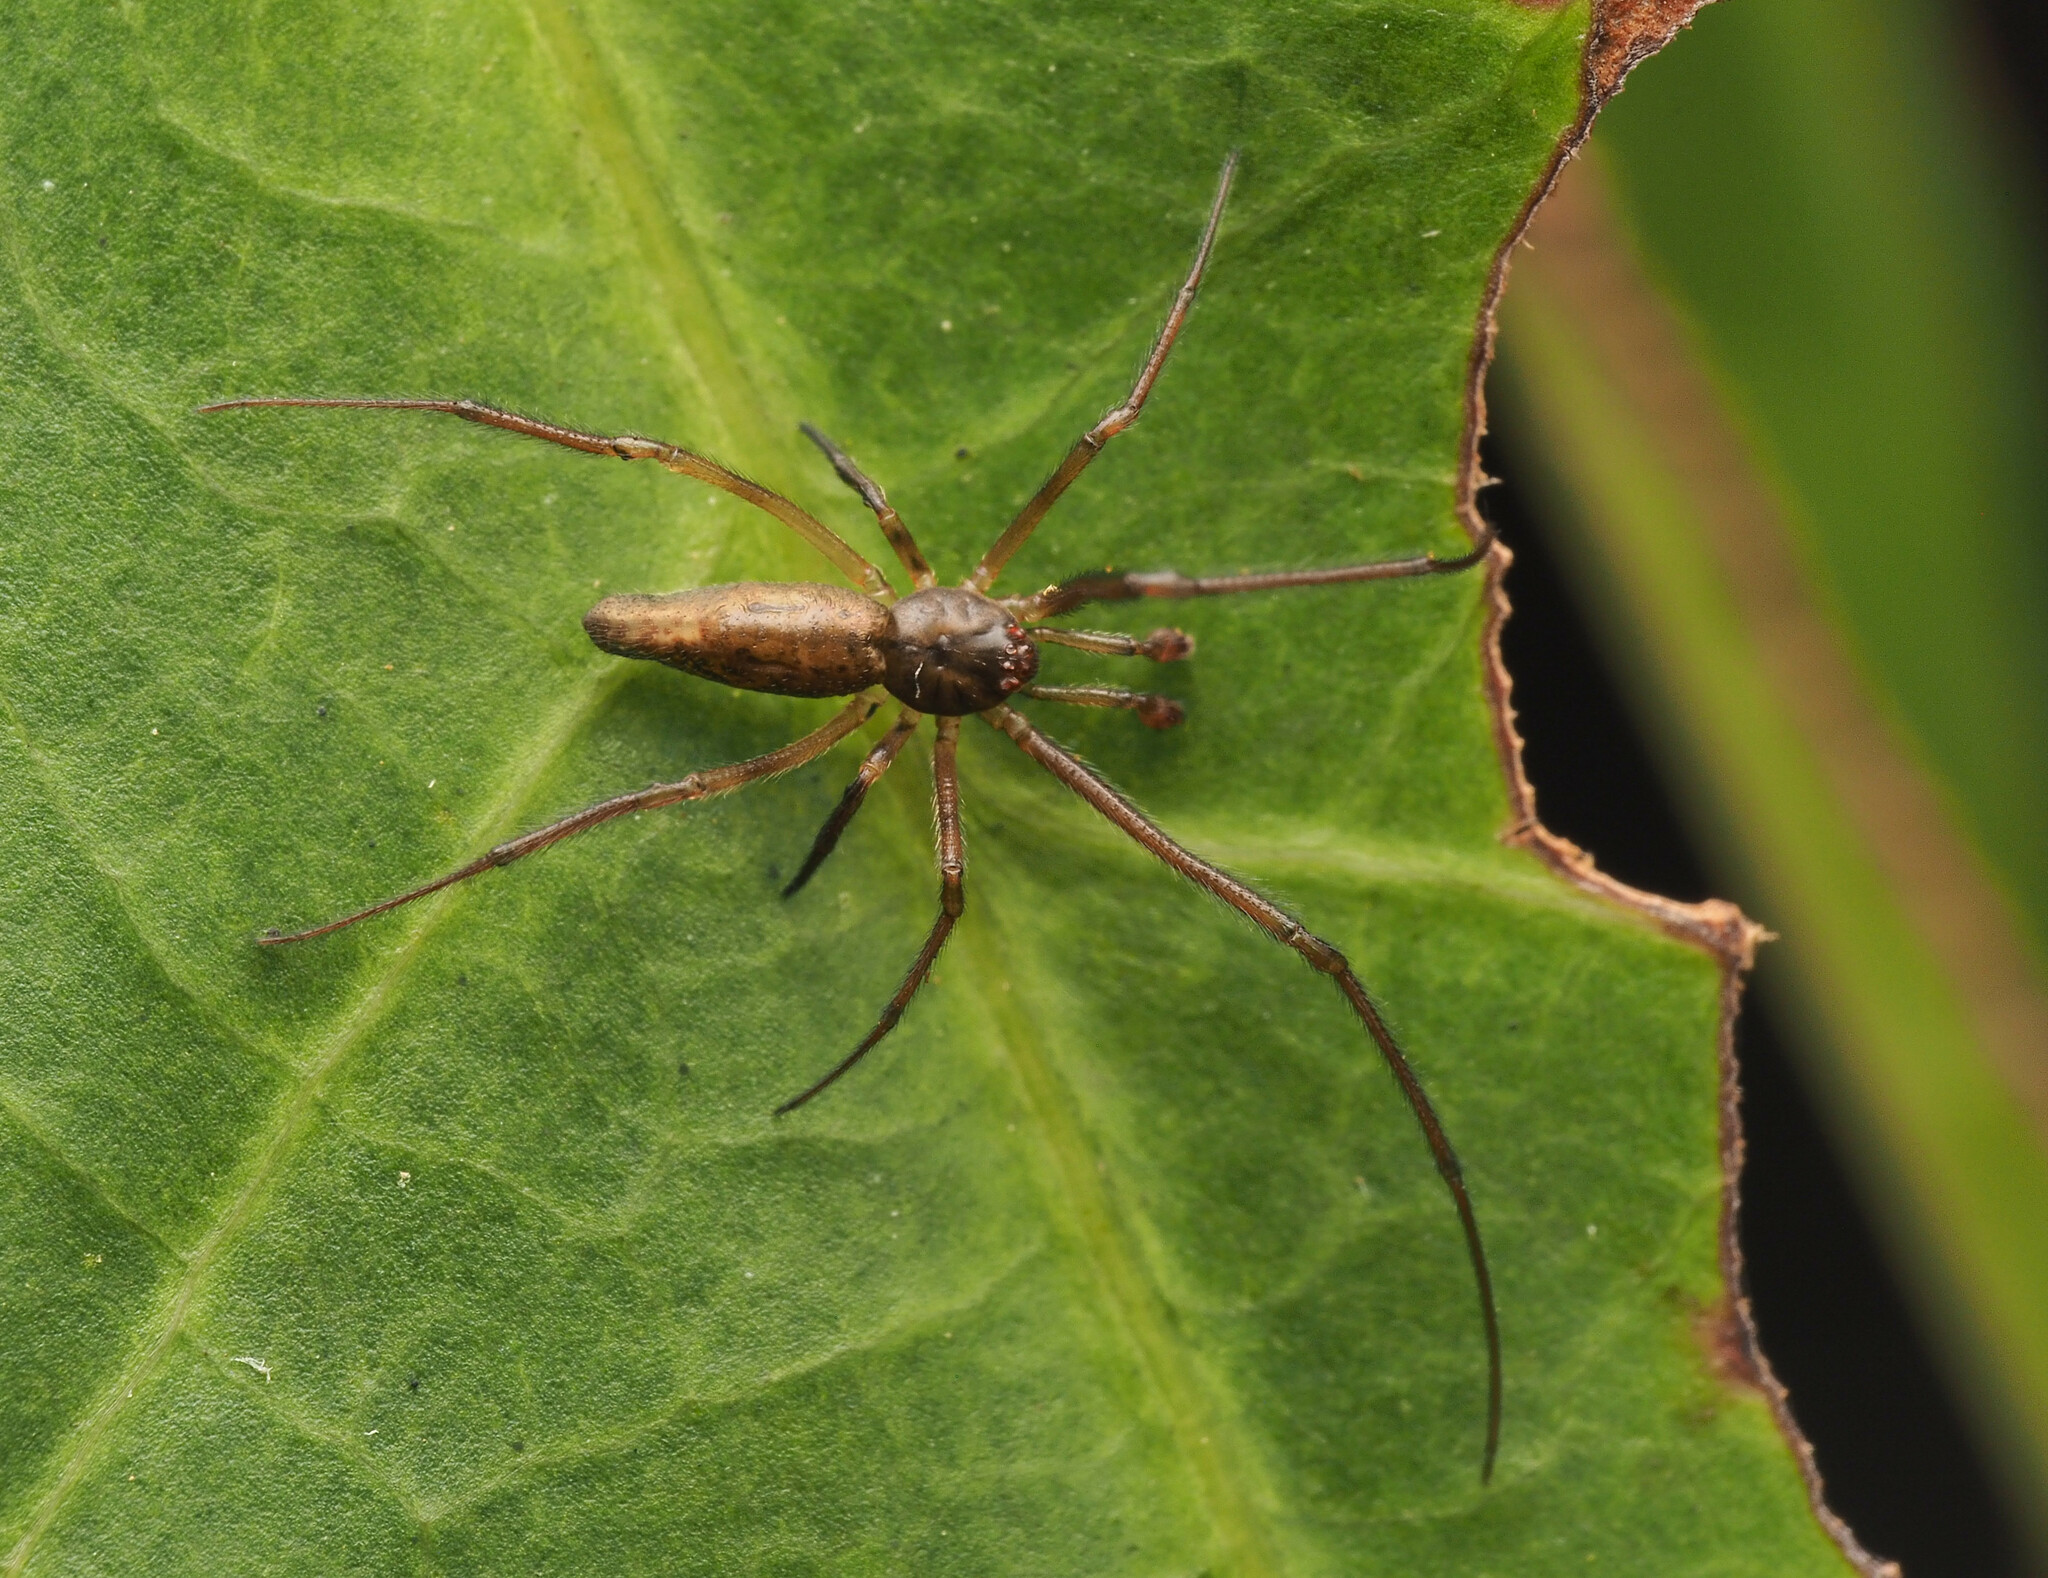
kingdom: Animalia
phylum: Arthropoda
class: Arachnida
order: Araneae
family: Theridiidae
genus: Moneta
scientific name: Moneta
